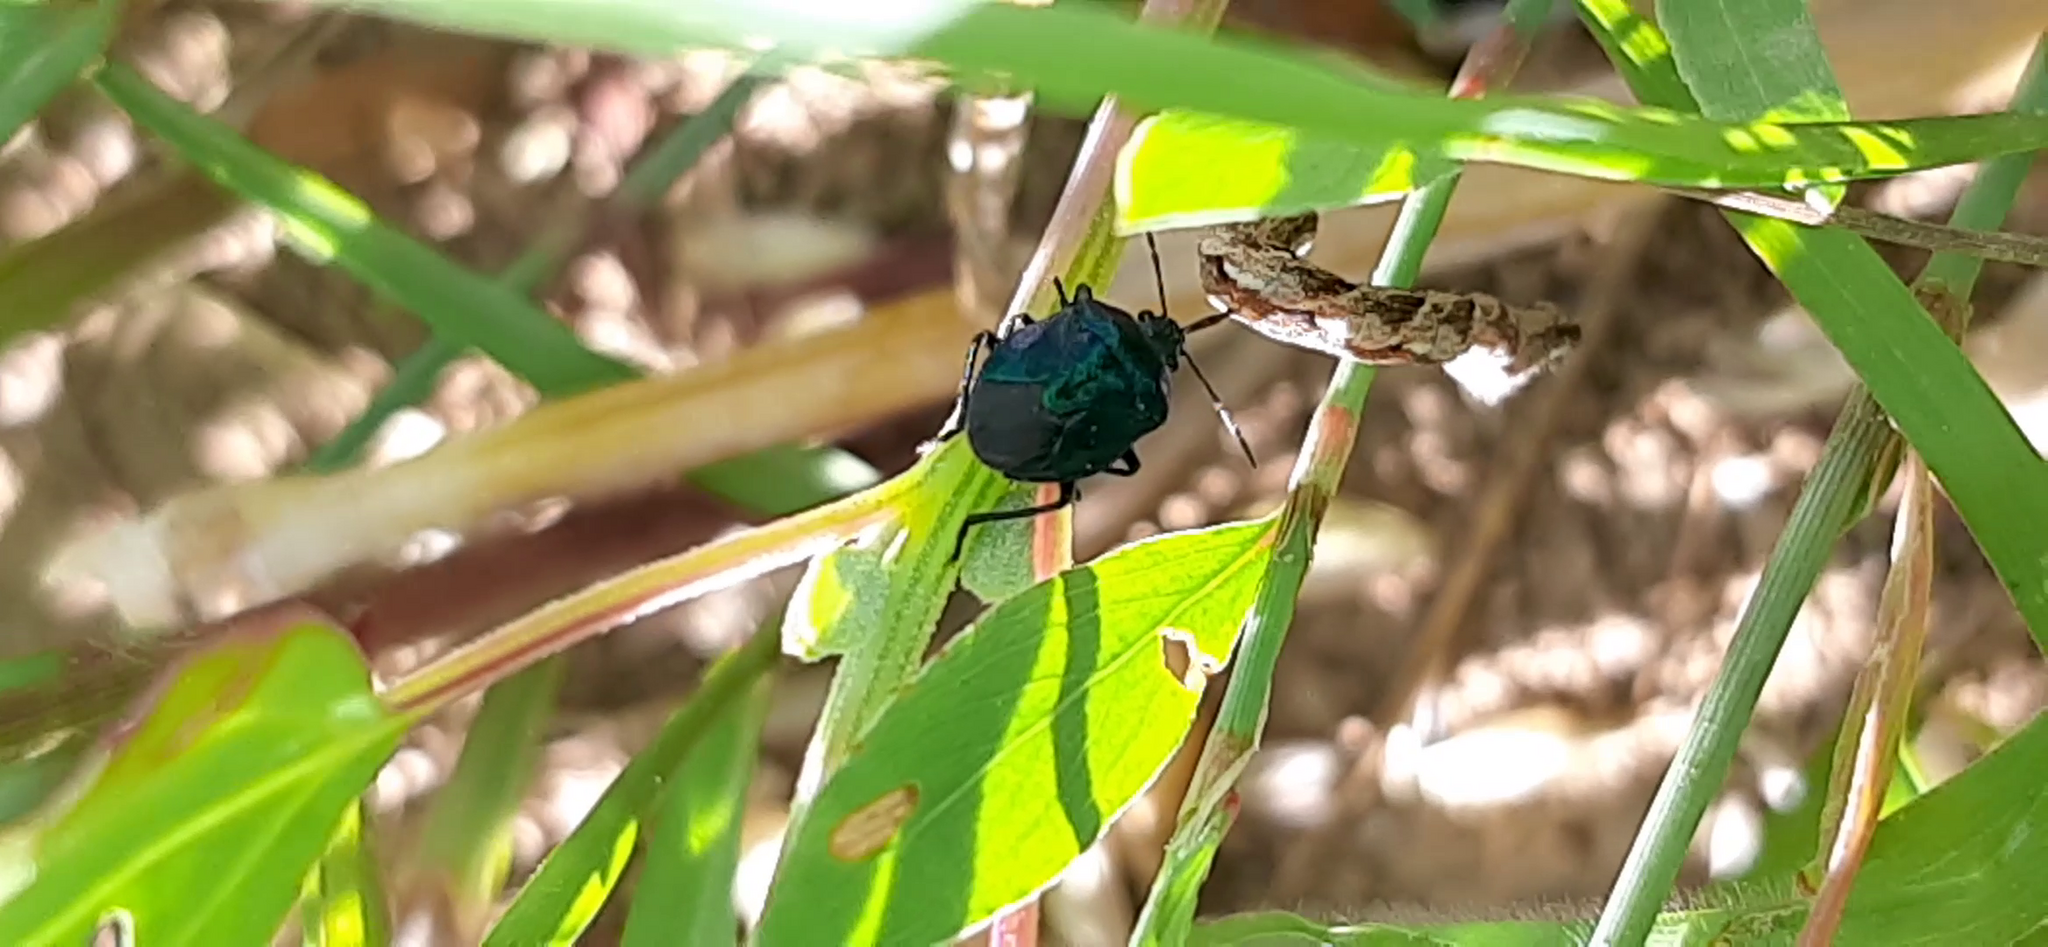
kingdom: Animalia
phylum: Arthropoda
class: Insecta
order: Hemiptera
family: Pentatomidae
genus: Zicrona
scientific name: Zicrona caerulea
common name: Blue shieldbug
